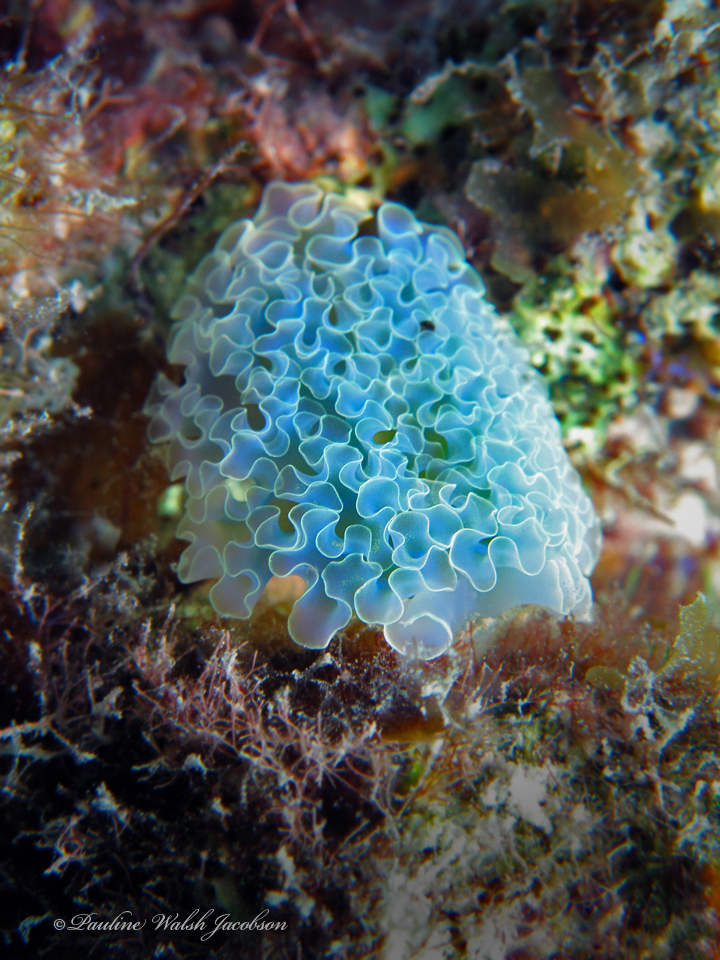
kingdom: Animalia
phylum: Mollusca
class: Gastropoda
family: Plakobranchidae
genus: Elysia
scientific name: Elysia crispata
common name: Lettuce slug
